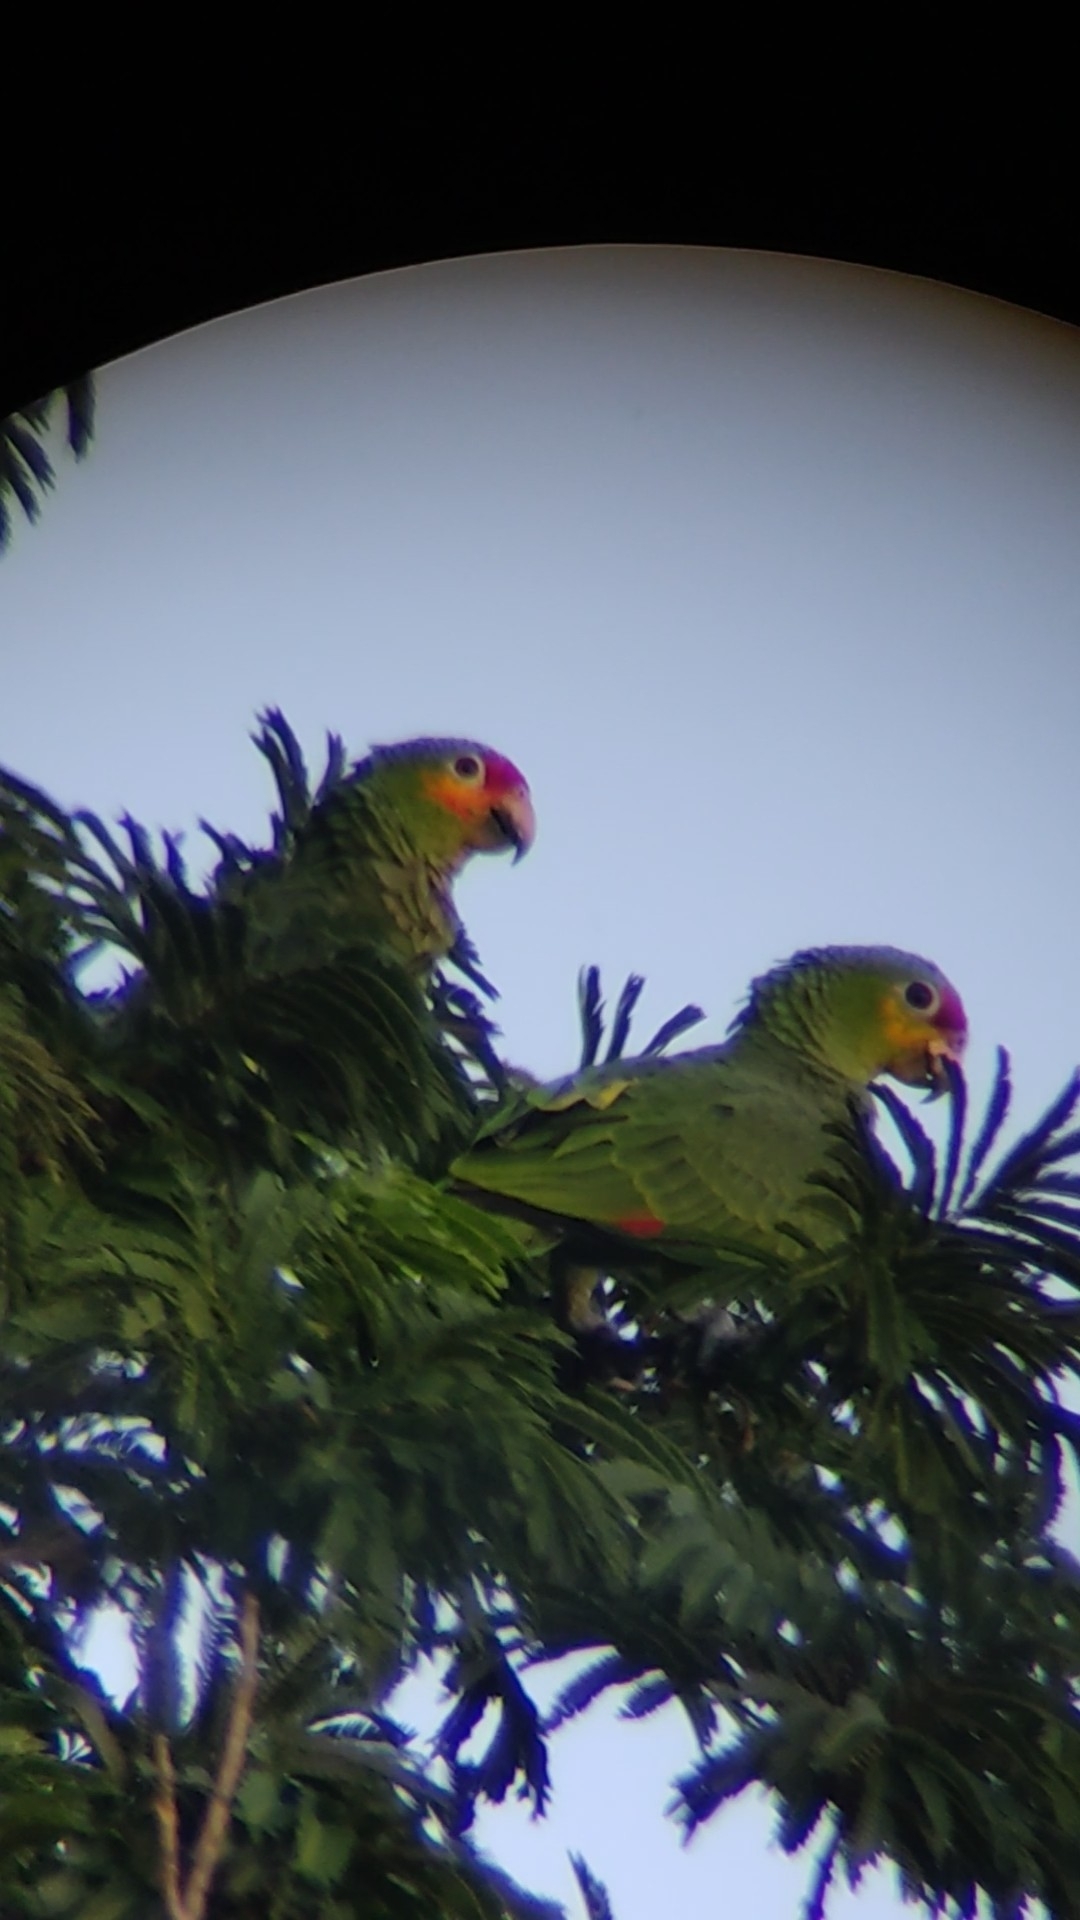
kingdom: Animalia
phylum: Chordata
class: Aves
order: Psittaciformes
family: Psittacidae
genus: Amazona
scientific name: Amazona autumnalis
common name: Red-lored amazon
